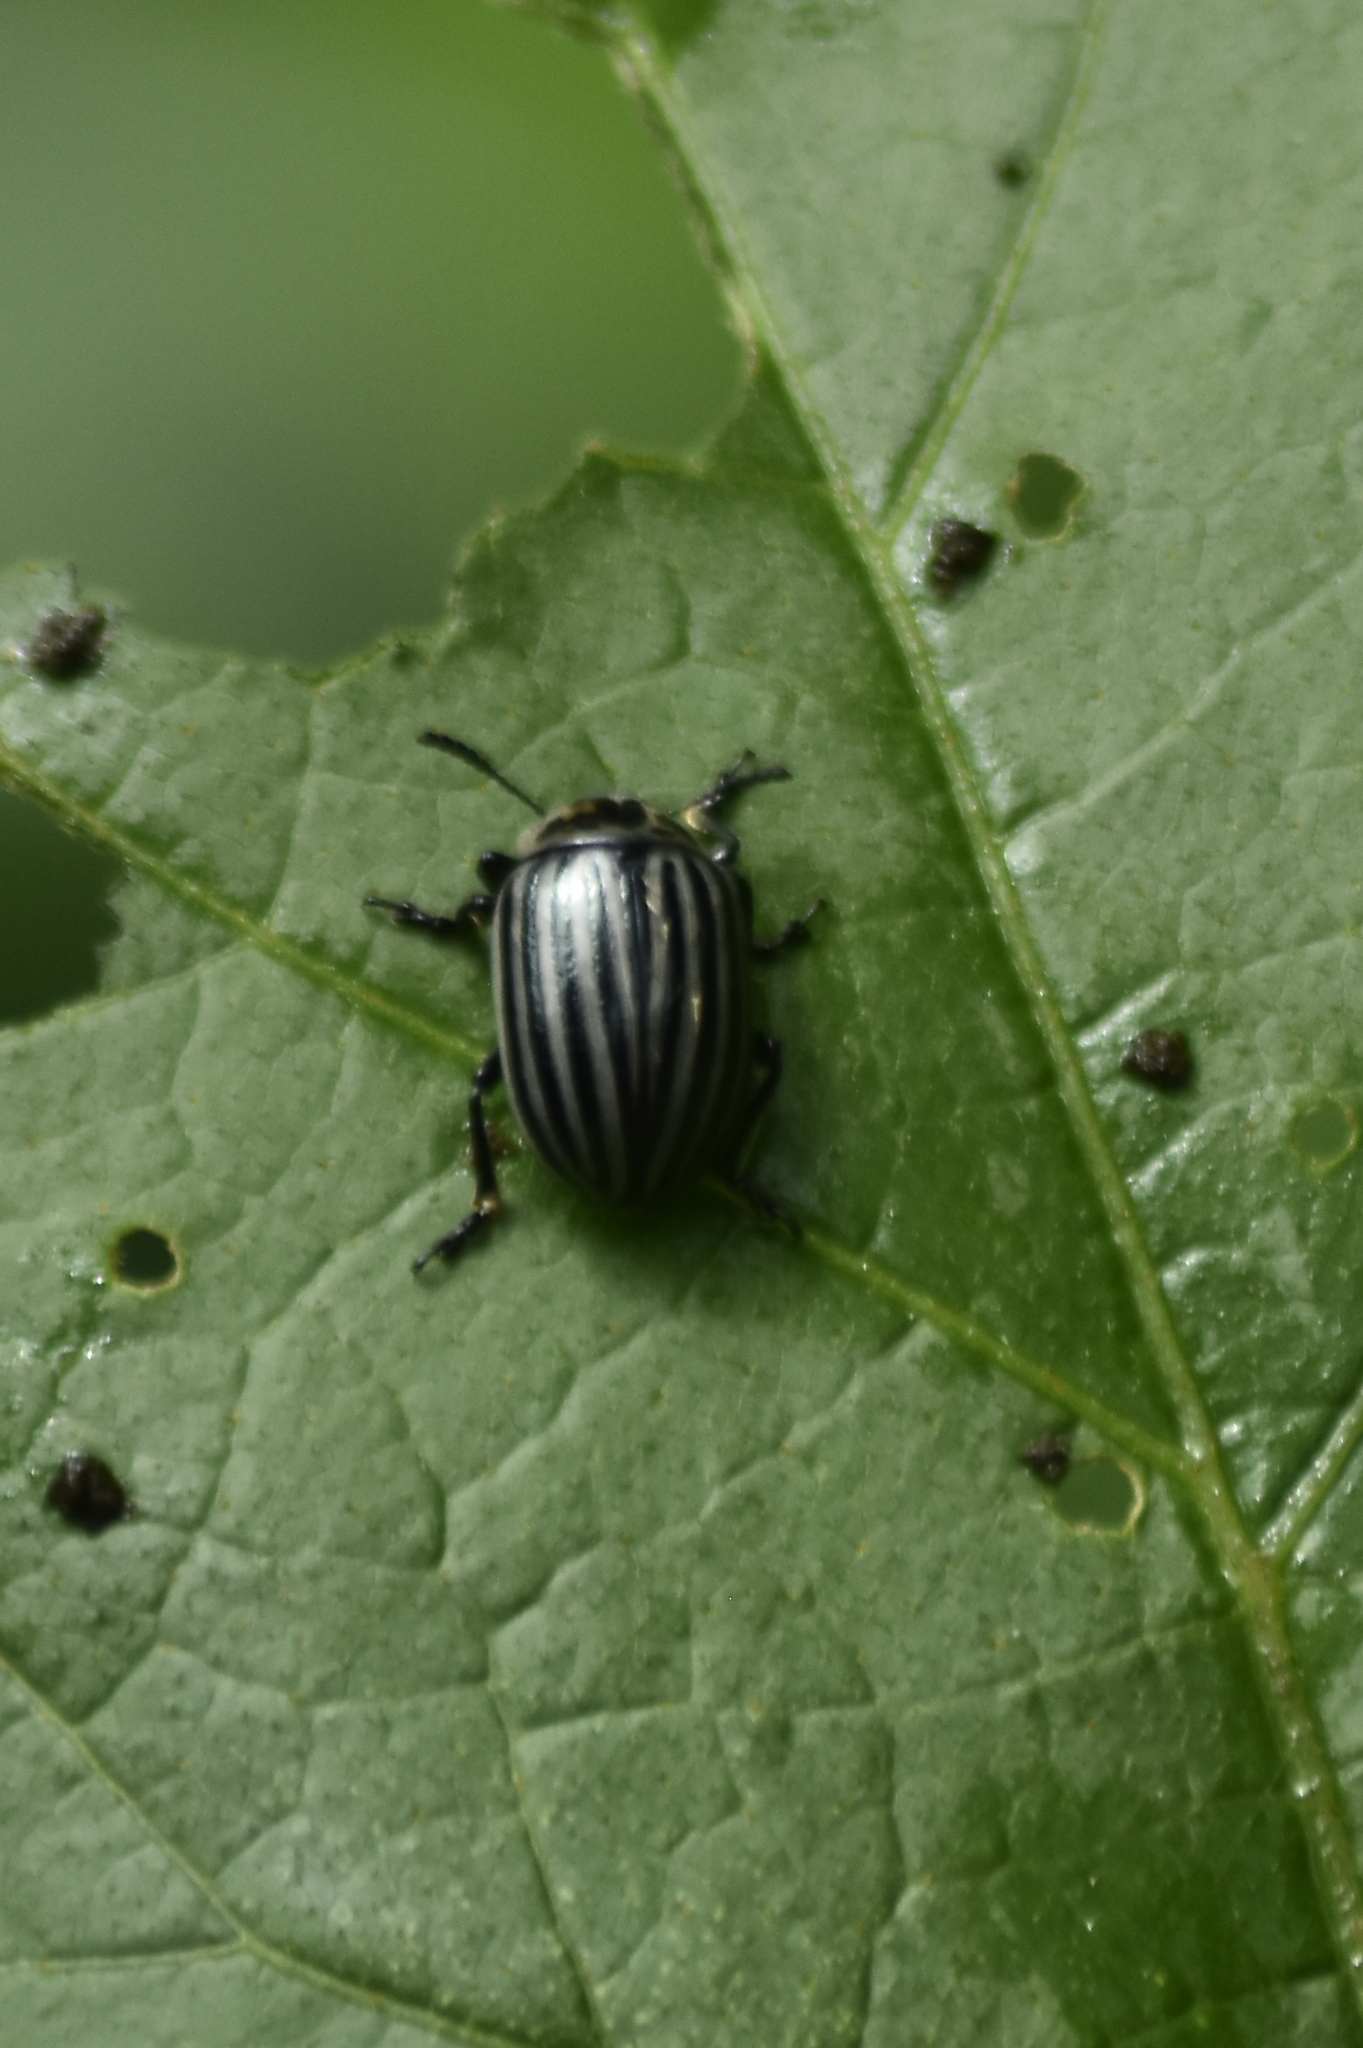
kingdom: Animalia
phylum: Arthropoda
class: Insecta
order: Coleoptera
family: Chrysomelidae
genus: Leptinotarsa
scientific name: Leptinotarsa
